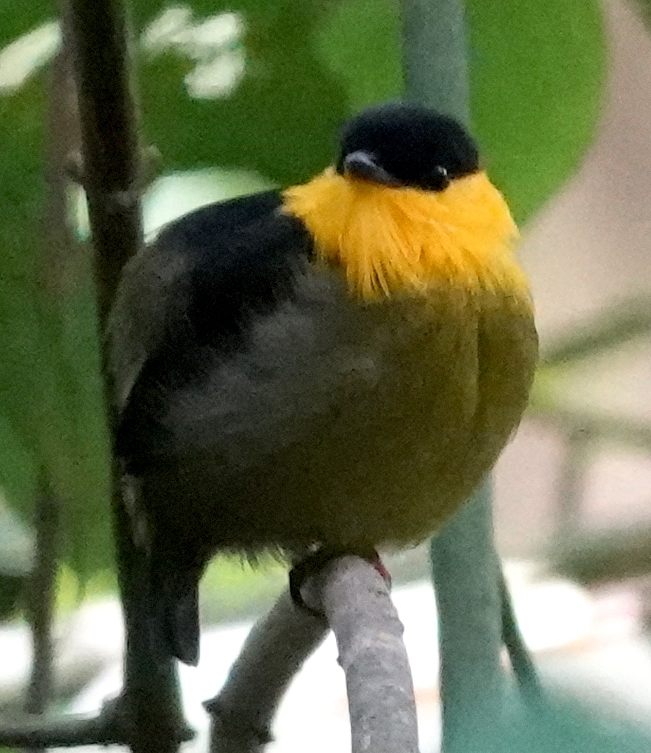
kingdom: Animalia
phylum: Chordata
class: Aves
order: Passeriformes
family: Pipridae
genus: Manacus
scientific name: Manacus vitellinus
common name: Golden-collared manakin
